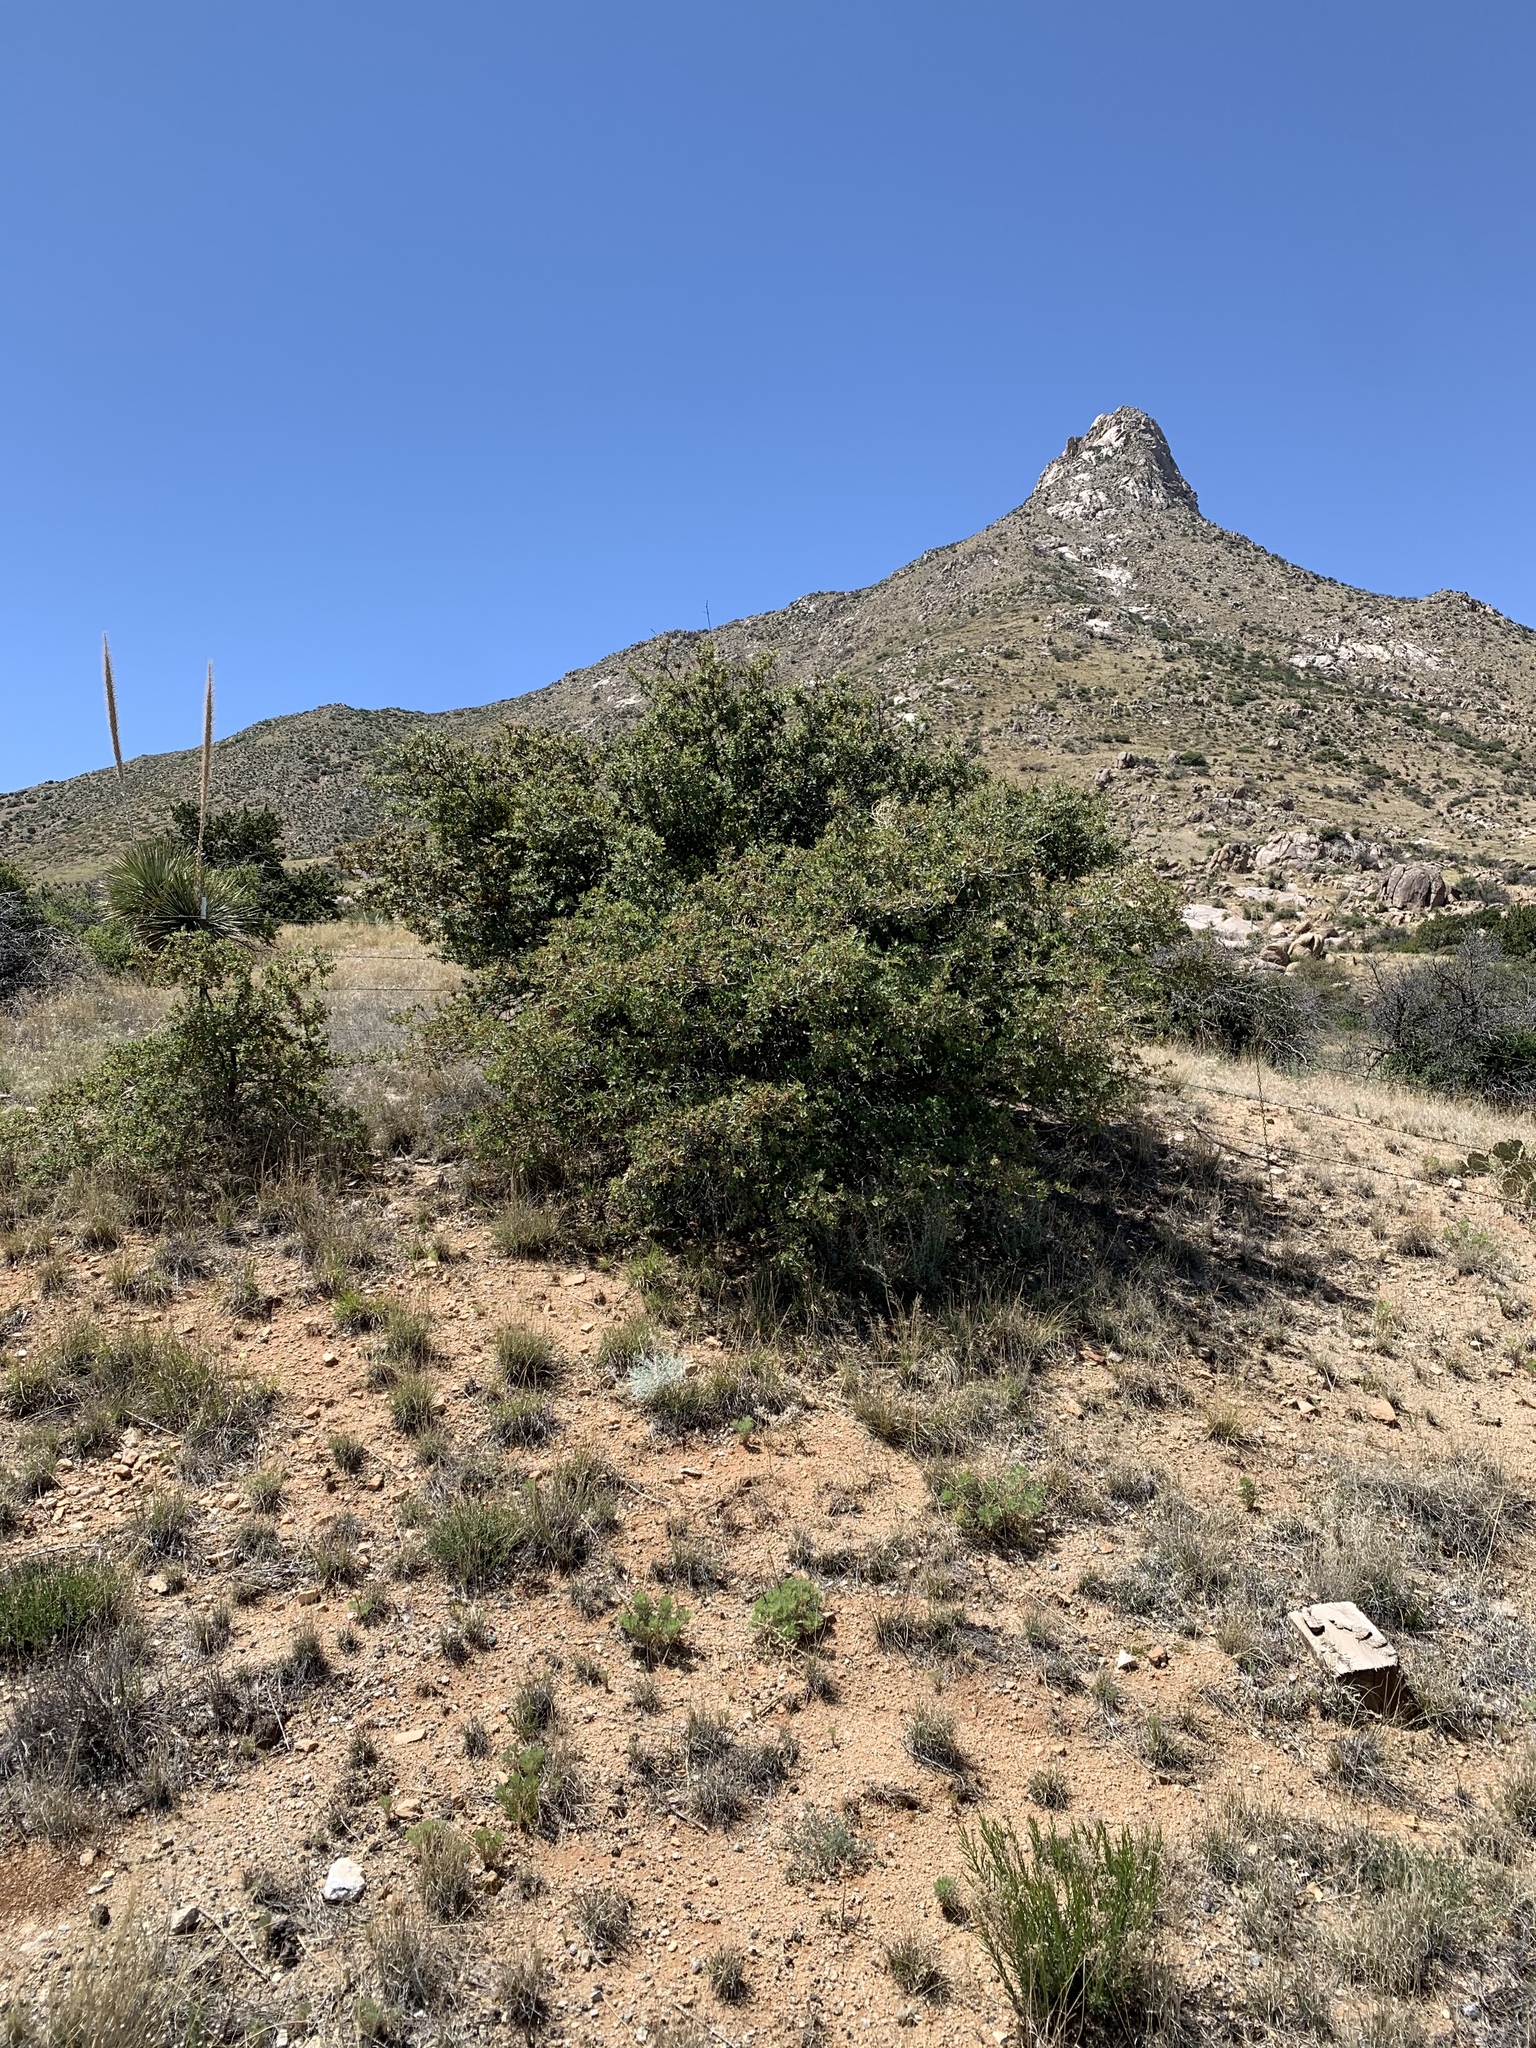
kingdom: Plantae
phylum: Tracheophyta
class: Magnoliopsida
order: Fagales
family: Fagaceae
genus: Quercus
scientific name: Quercus turbinella
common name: Sonoran scrub oak
